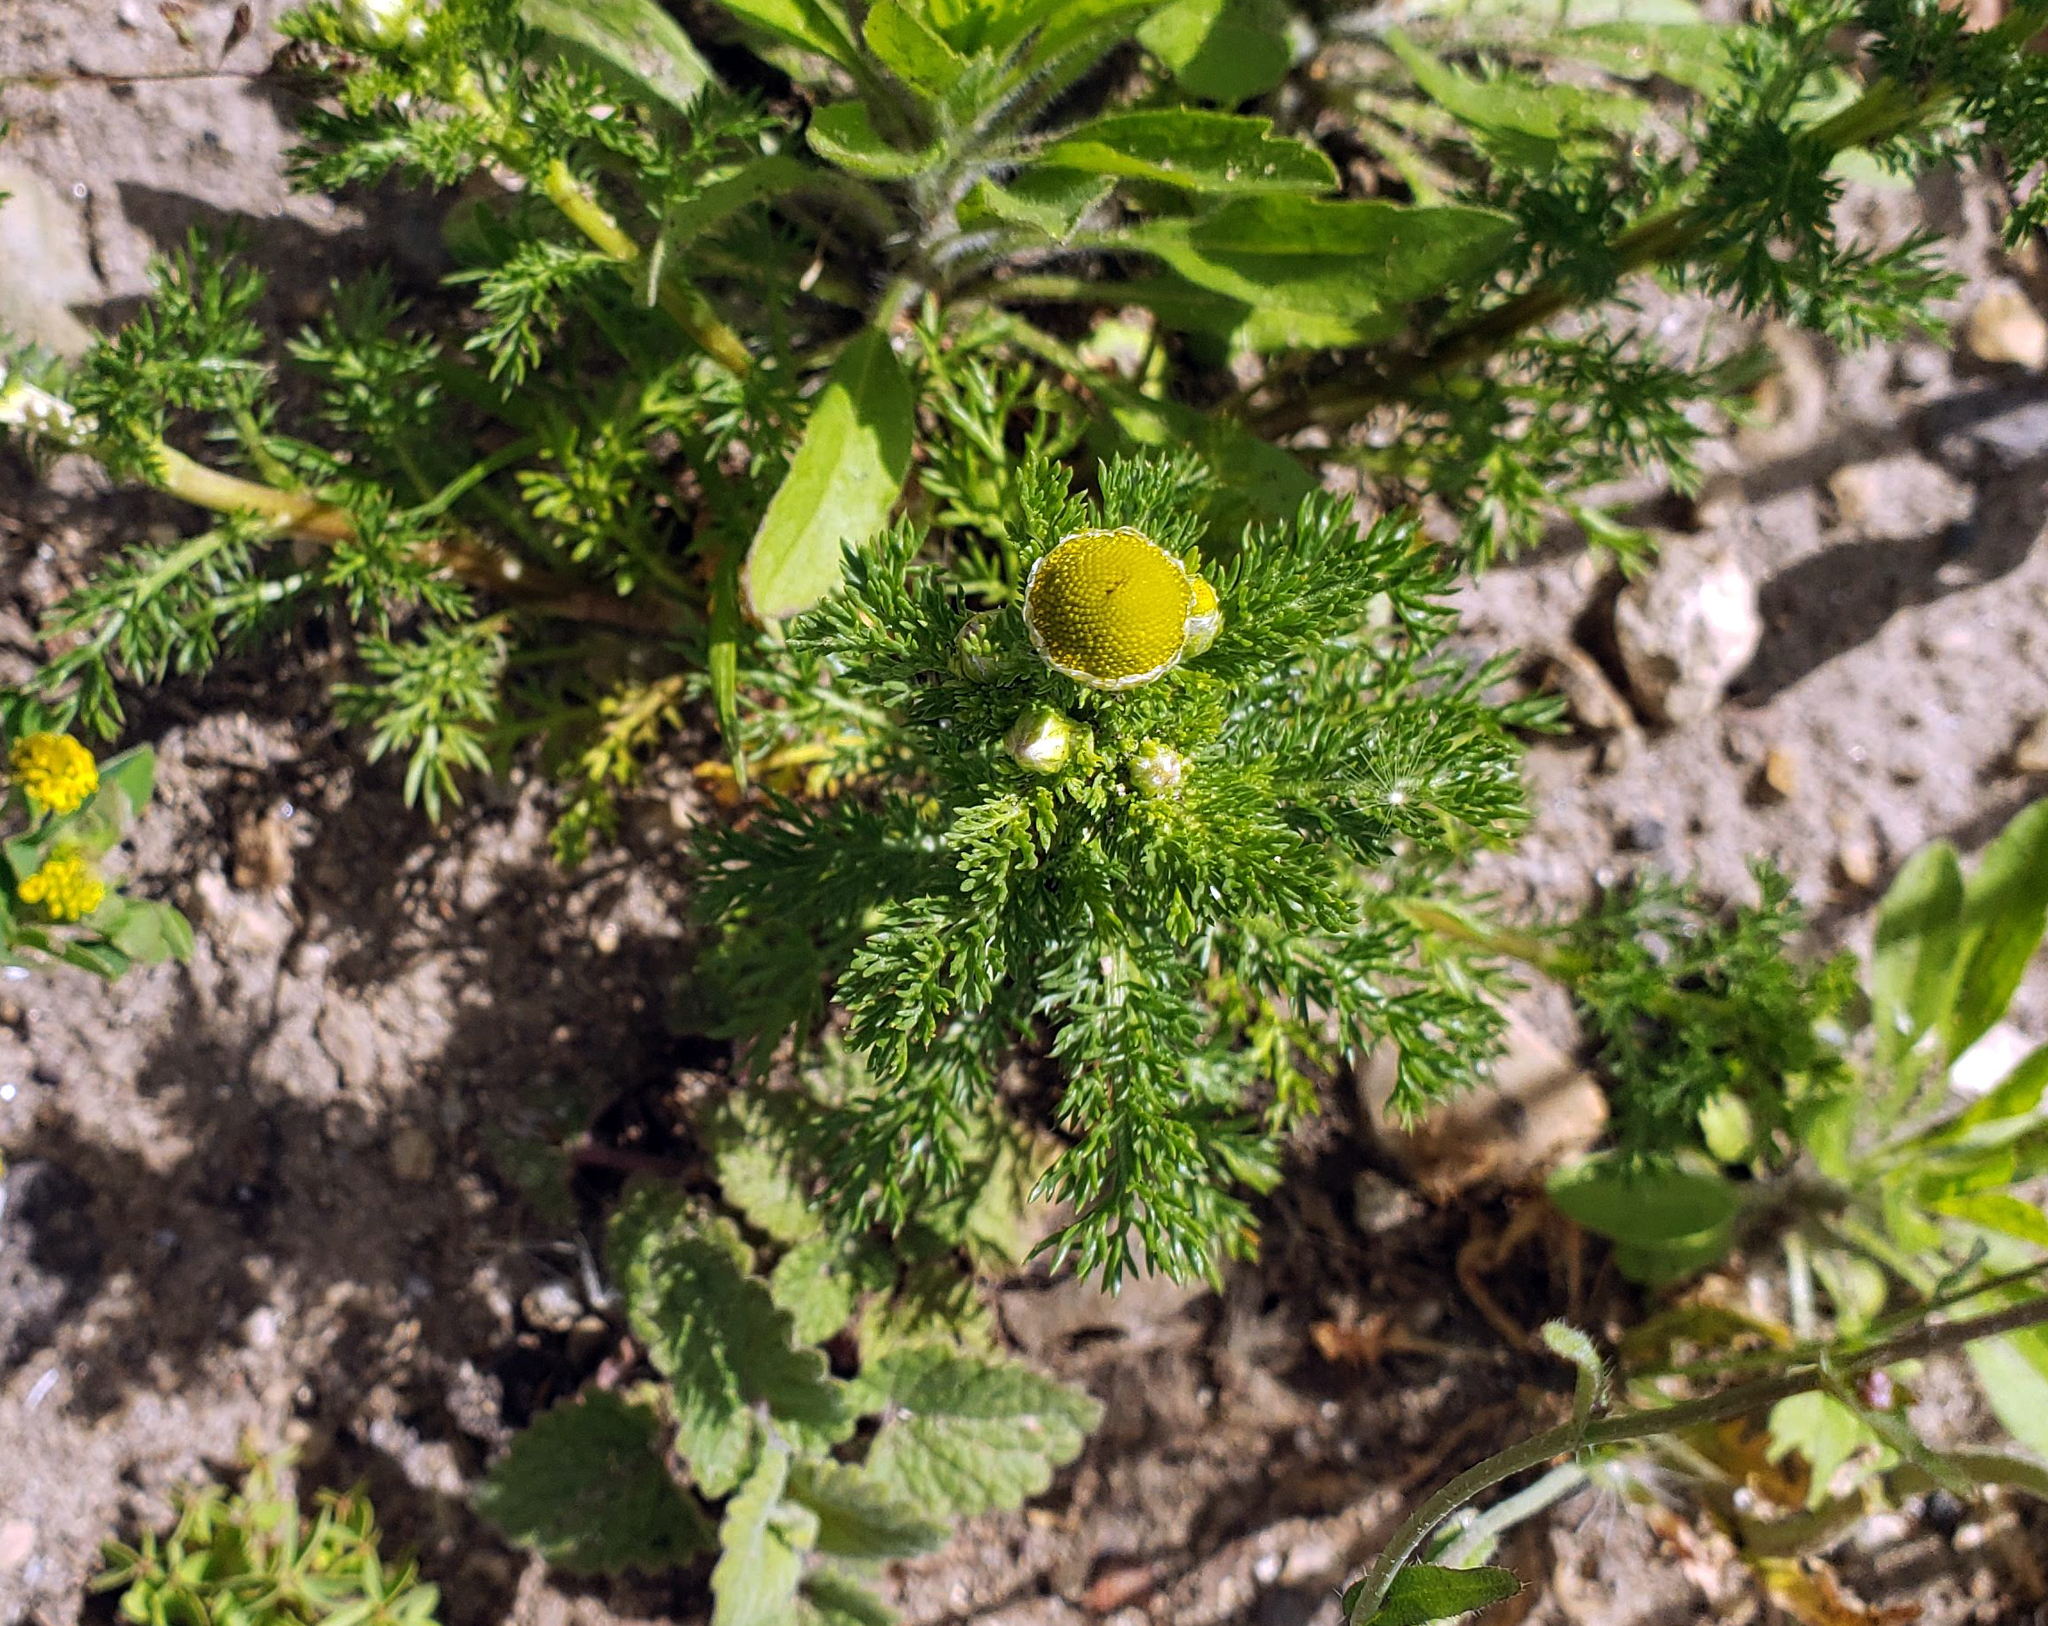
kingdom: Plantae
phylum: Tracheophyta
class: Magnoliopsida
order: Asterales
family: Asteraceae
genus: Matricaria
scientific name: Matricaria discoidea
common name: Disc mayweed
